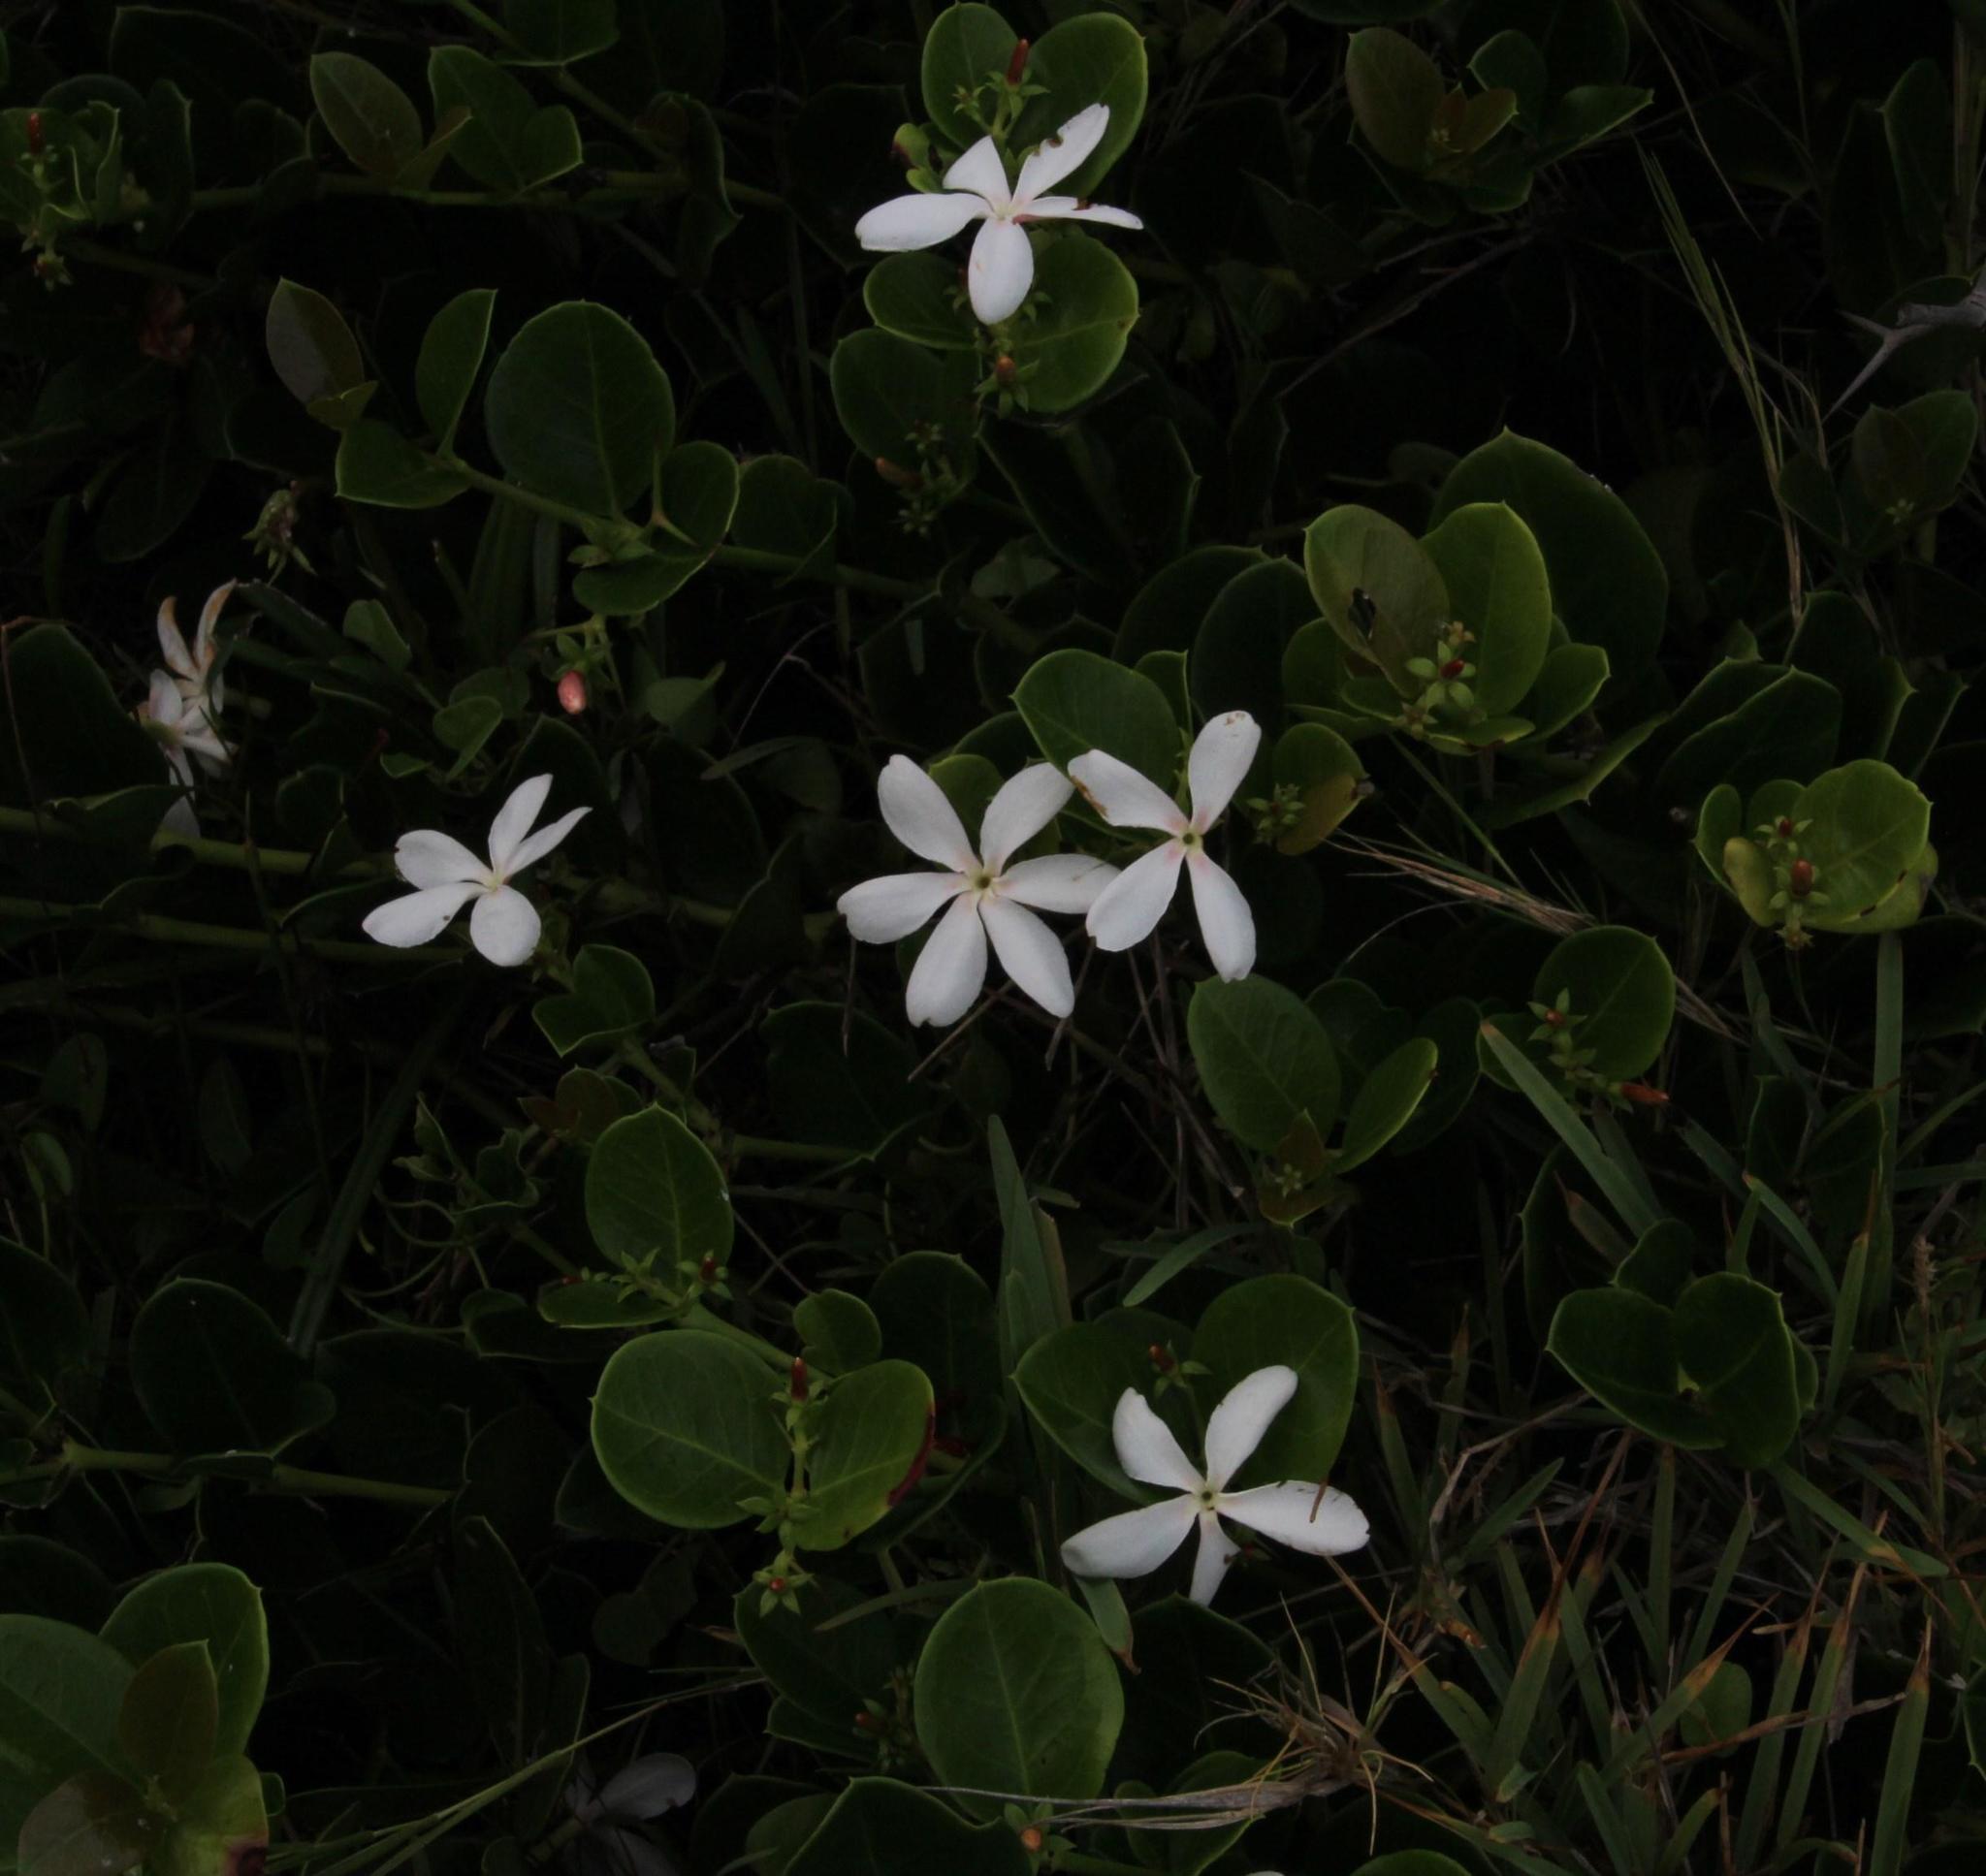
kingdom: Plantae
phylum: Tracheophyta
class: Magnoliopsida
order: Gentianales
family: Apocynaceae
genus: Carissa
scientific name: Carissa macrocarpa
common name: Natal plum
